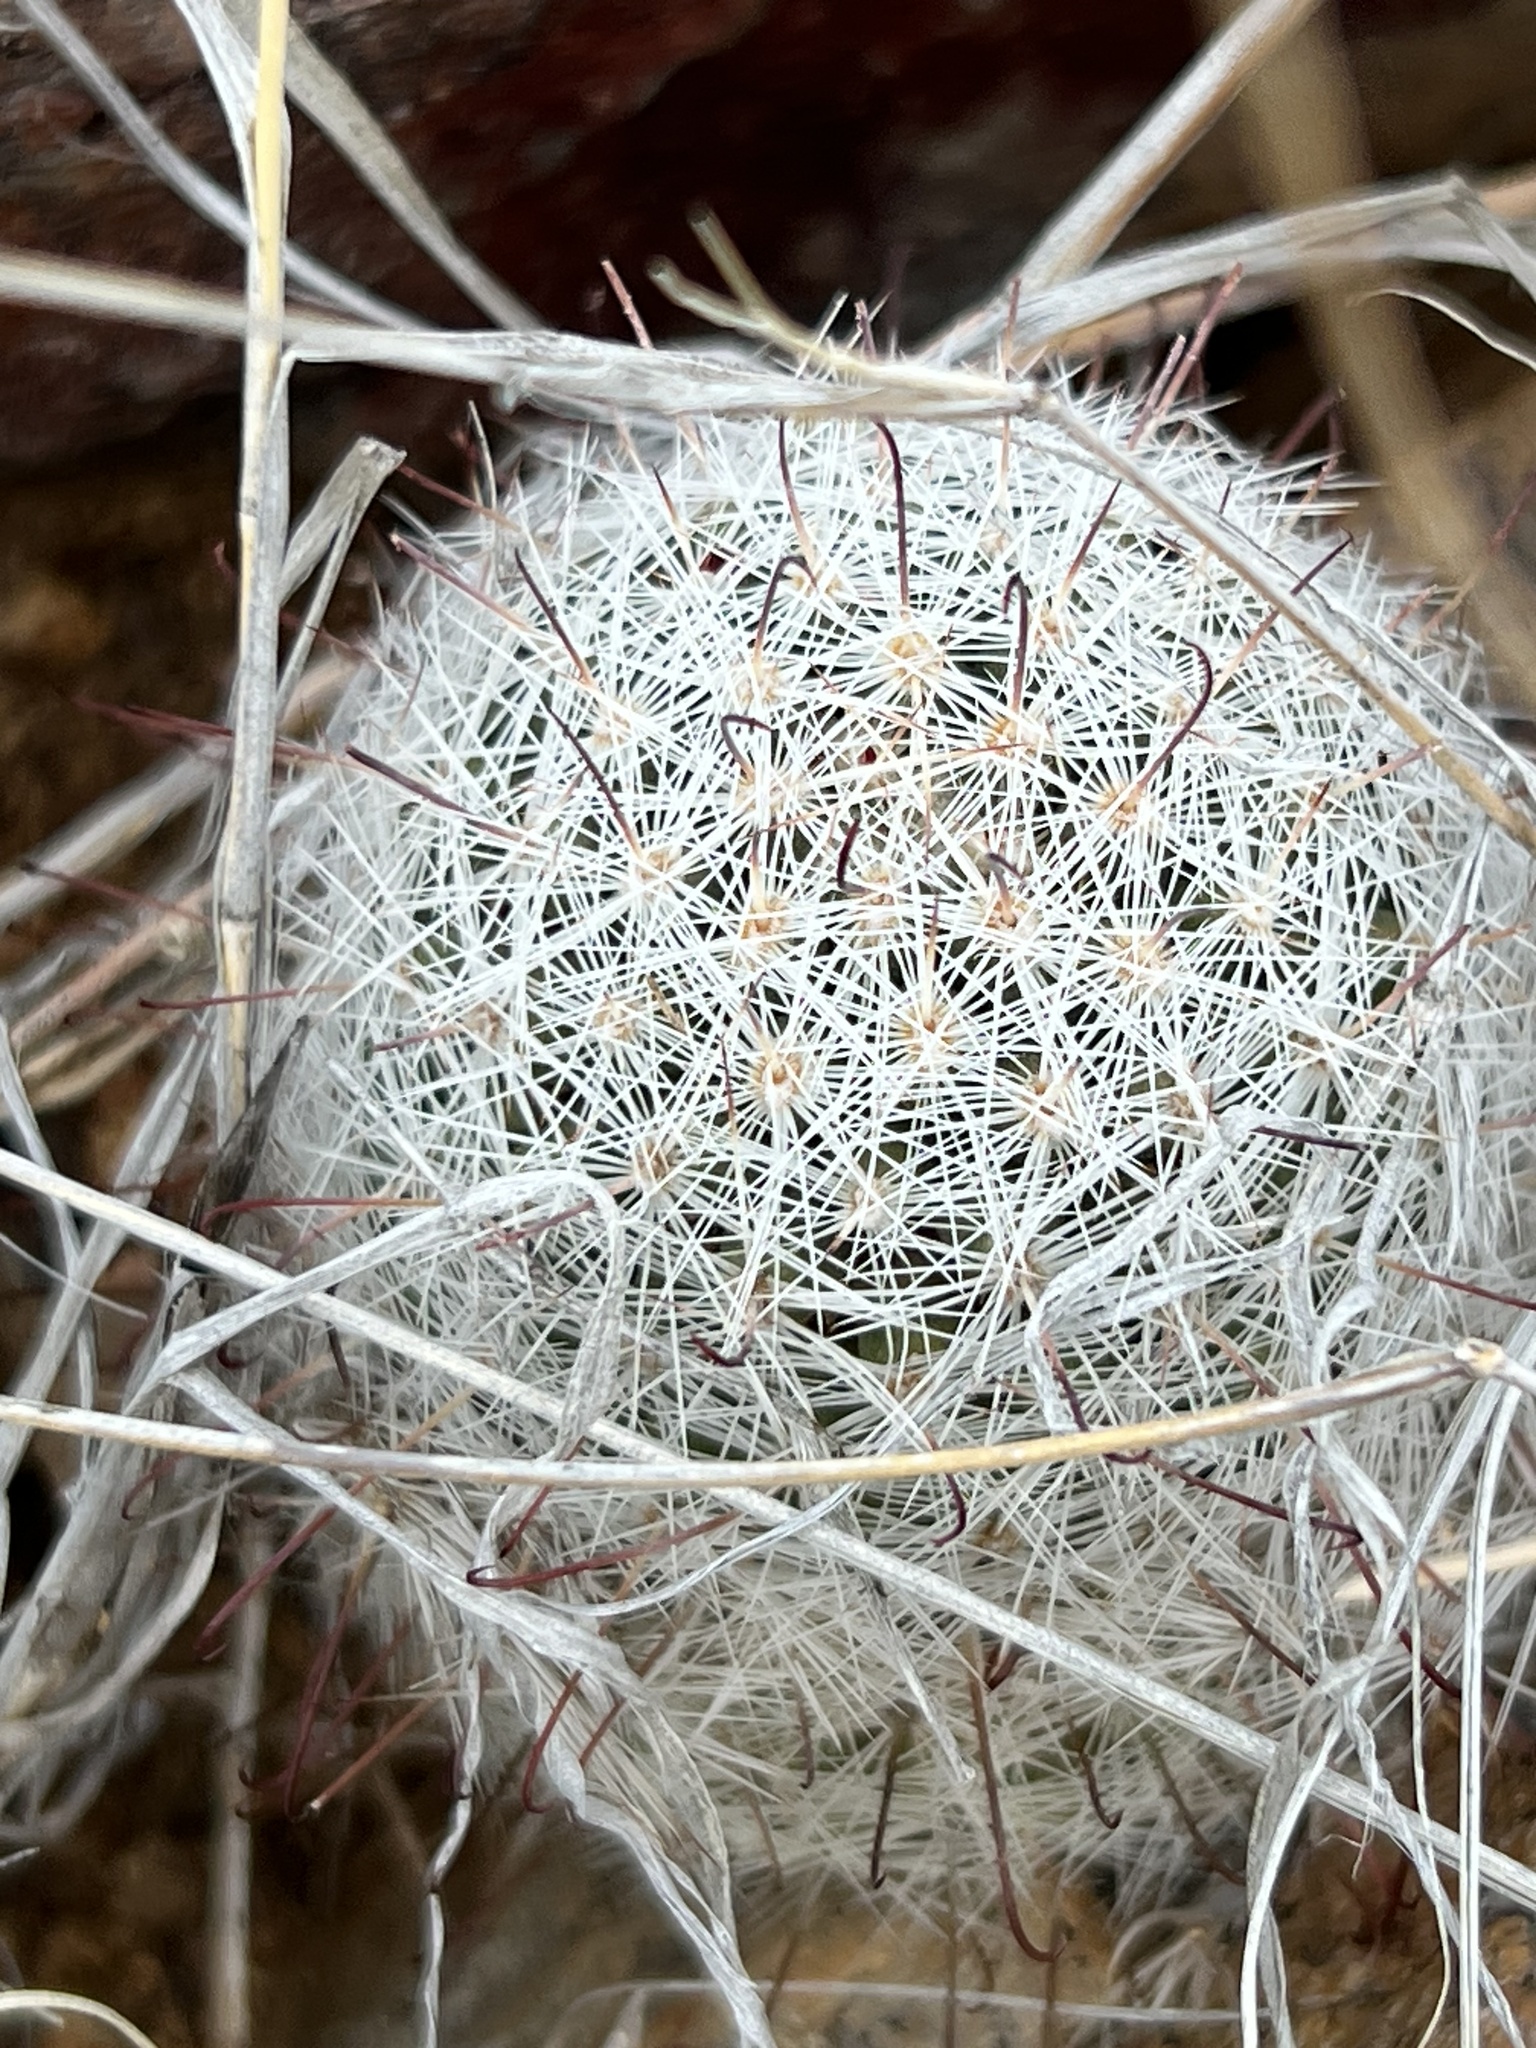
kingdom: Plantae
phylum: Tracheophyta
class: Magnoliopsida
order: Caryophyllales
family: Cactaceae
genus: Cochemiea
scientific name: Cochemiea grahamii
